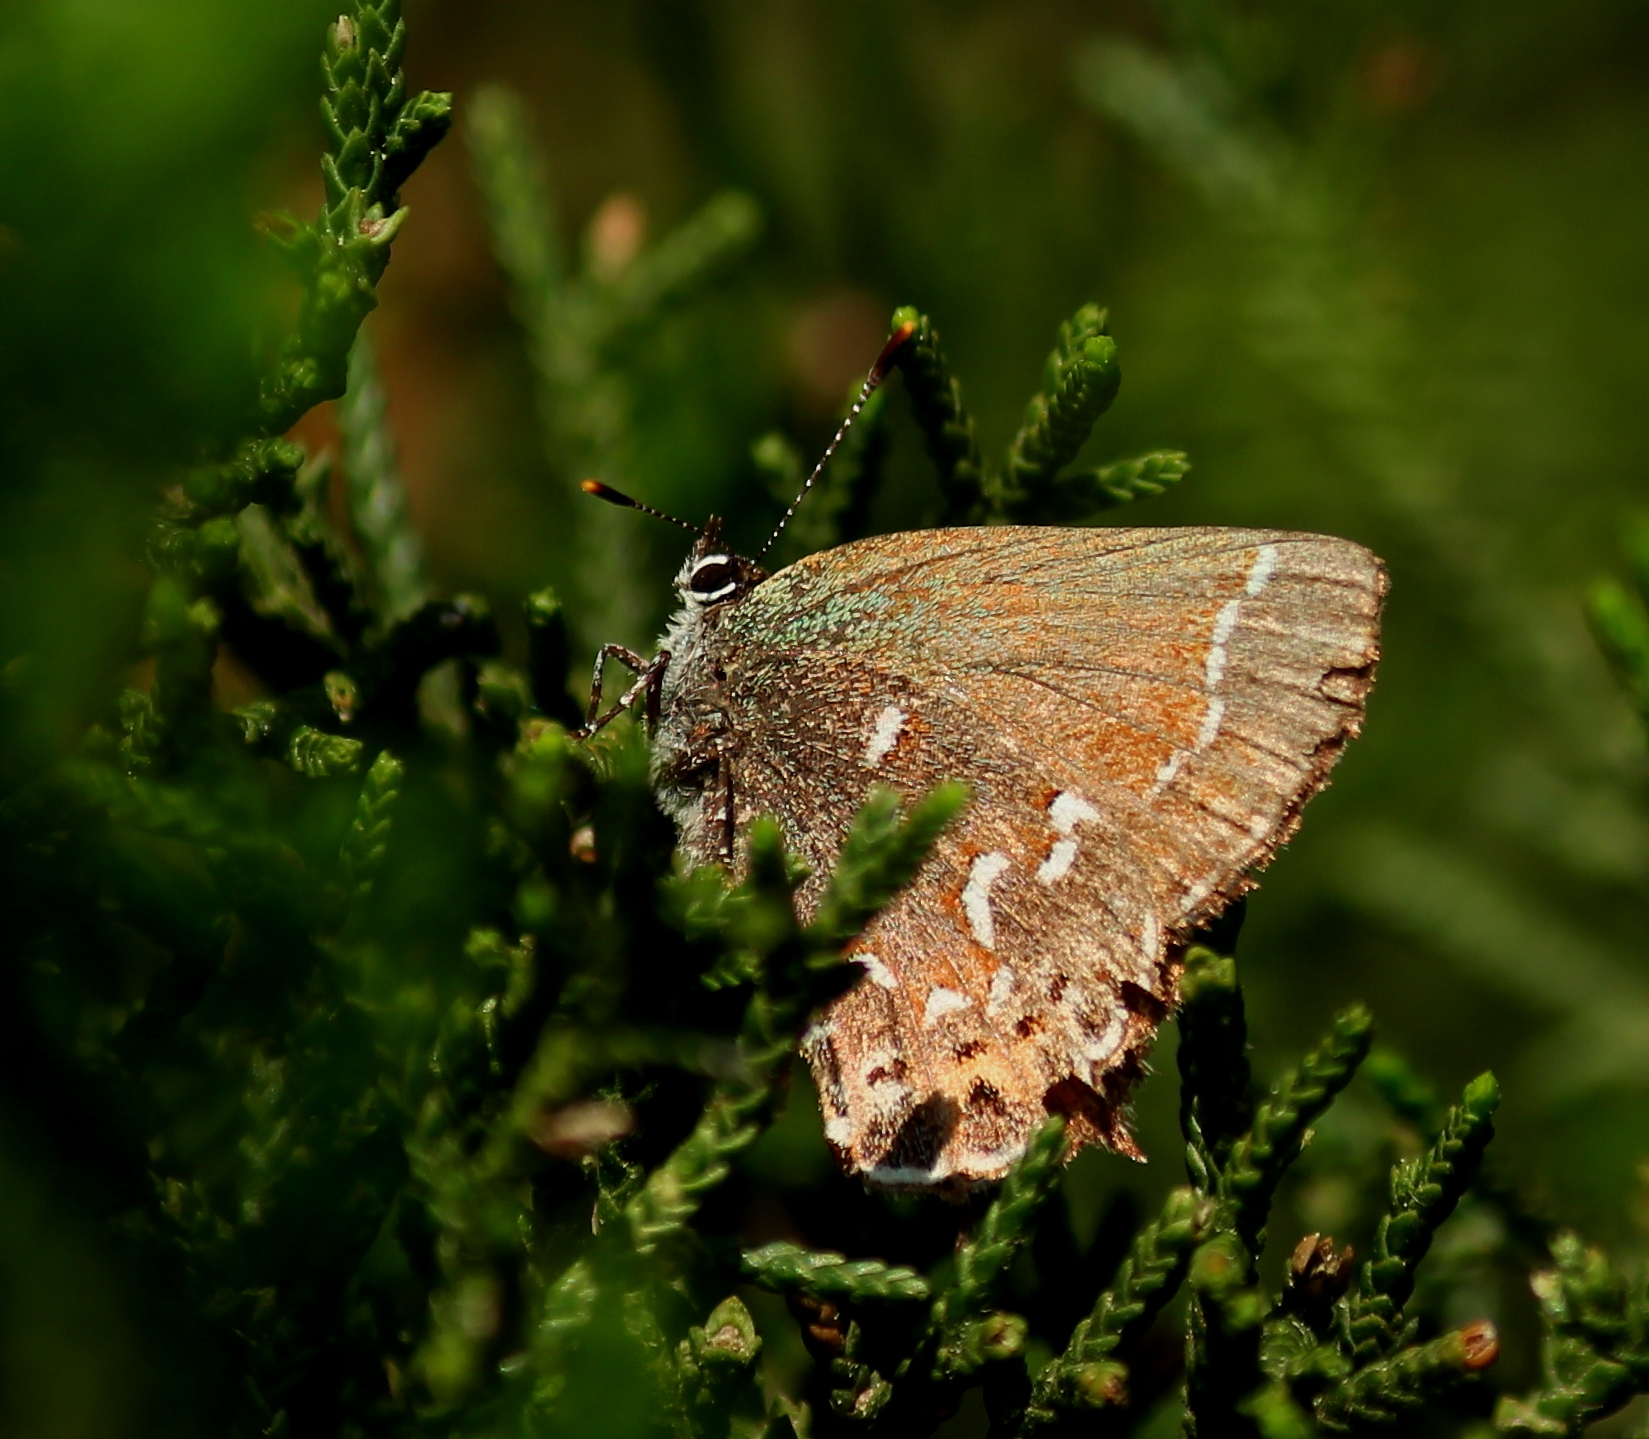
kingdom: Animalia
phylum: Arthropoda
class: Insecta
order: Lepidoptera
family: Lycaenidae
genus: Mitoura
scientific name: Mitoura gryneus
